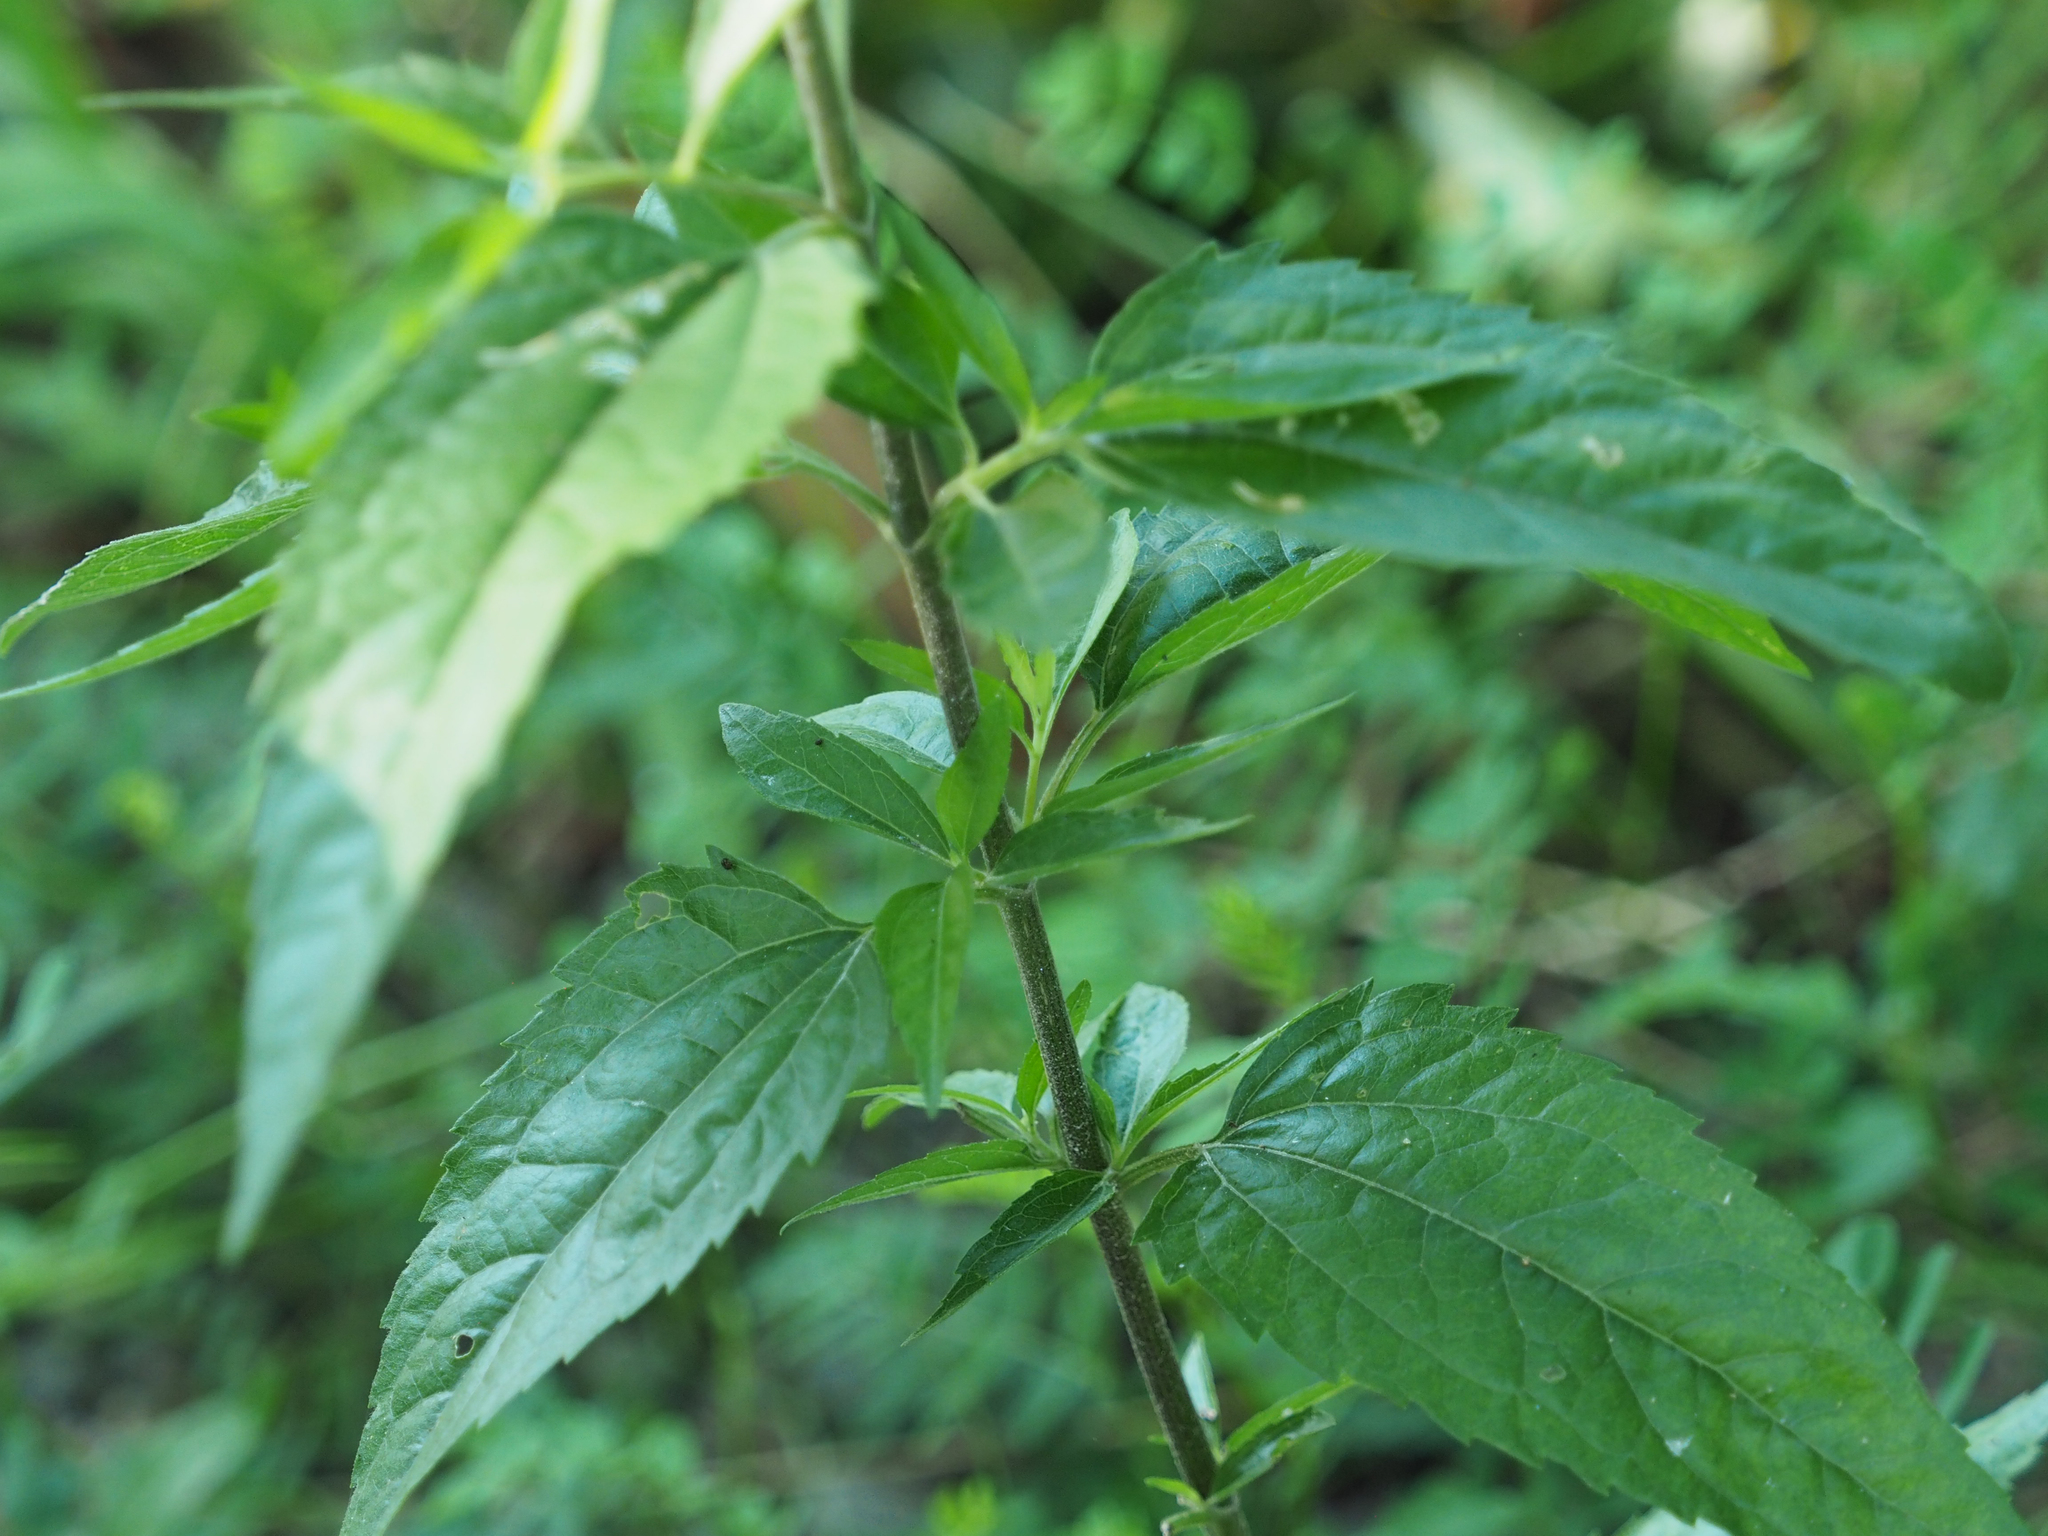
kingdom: Plantae
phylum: Tracheophyta
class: Magnoliopsida
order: Asterales
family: Asteraceae
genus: Eupatorium
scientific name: Eupatorium serotinum
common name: Late boneset
